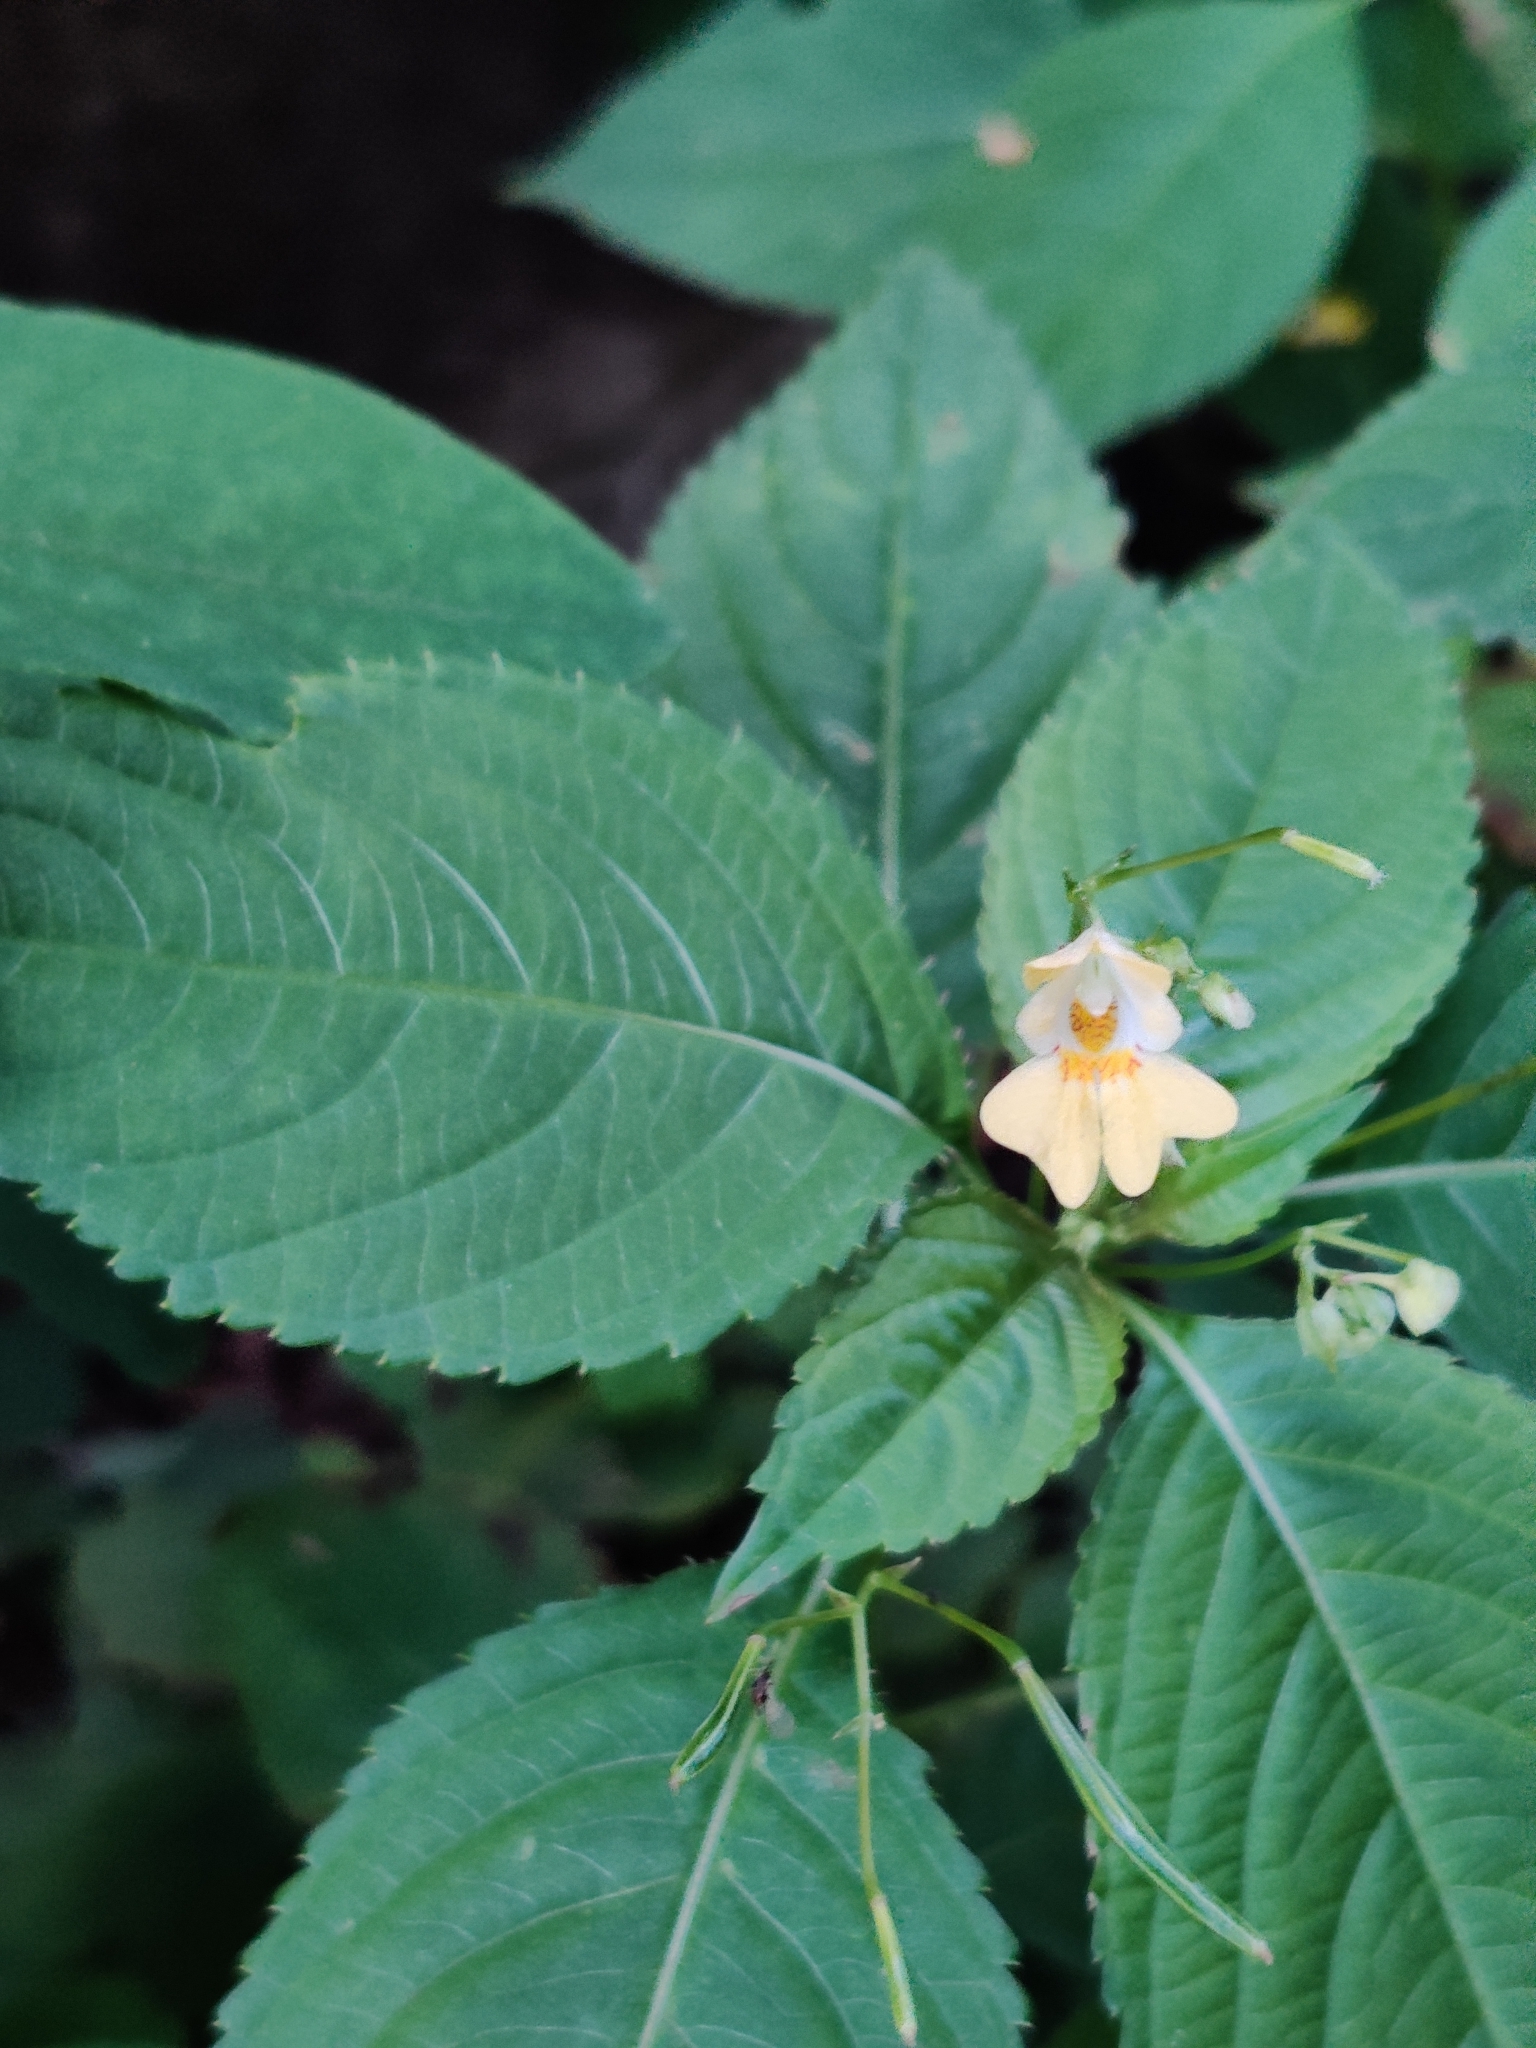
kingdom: Plantae
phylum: Tracheophyta
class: Magnoliopsida
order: Ericales
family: Balsaminaceae
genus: Impatiens
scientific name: Impatiens parviflora
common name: Small balsam
